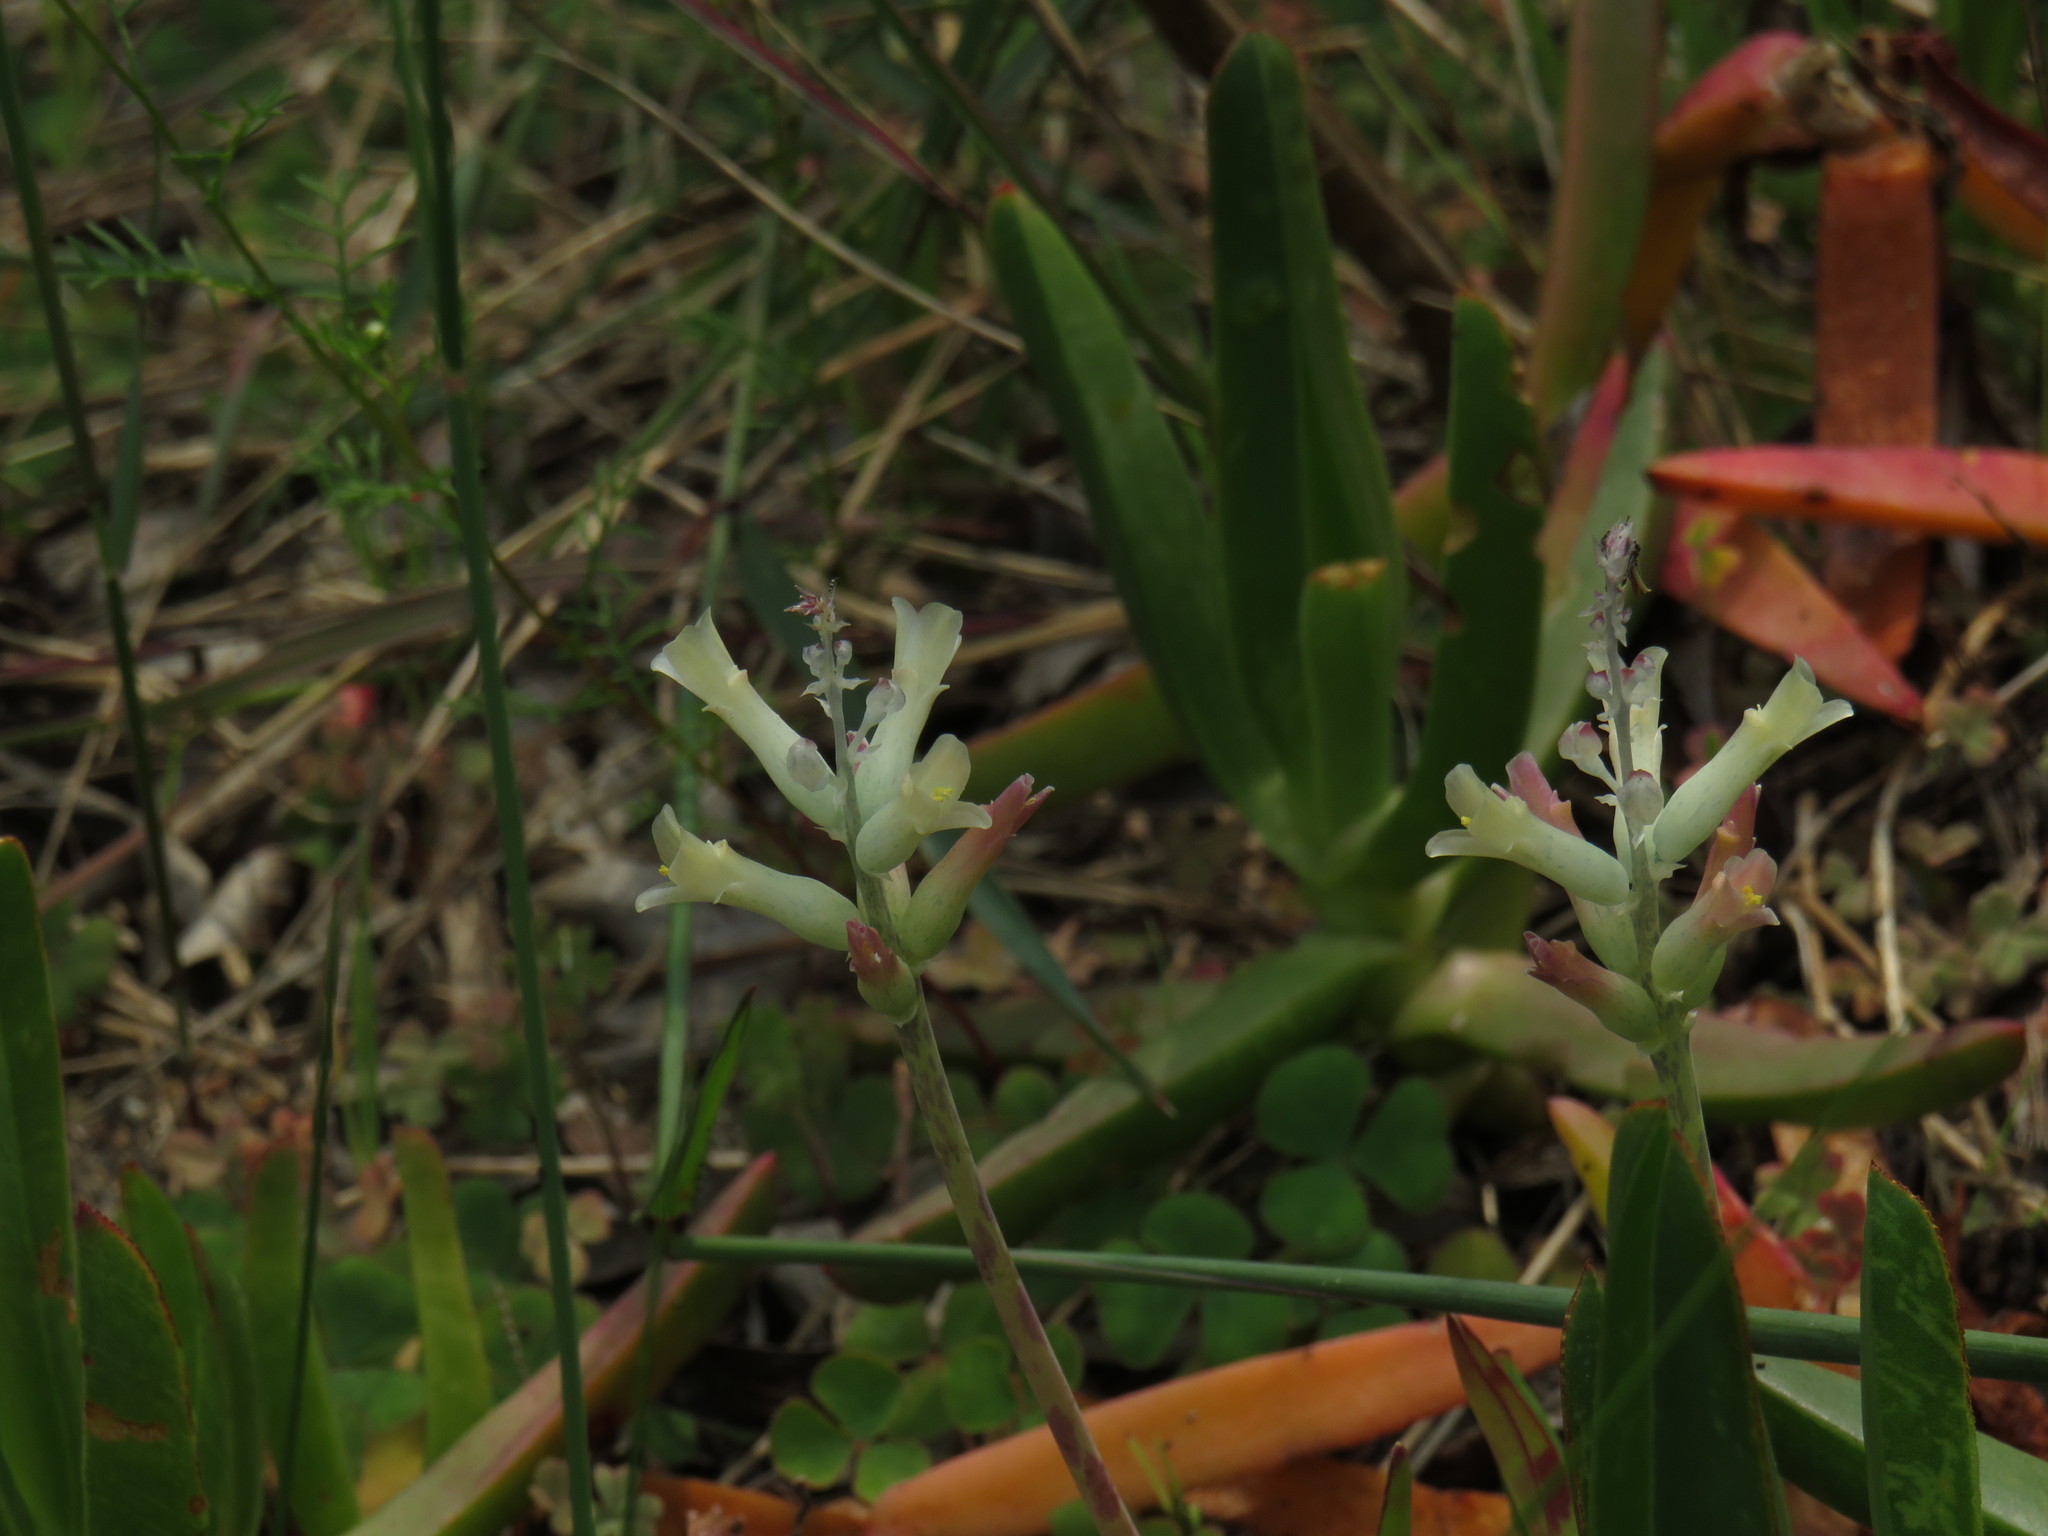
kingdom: Plantae
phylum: Tracheophyta
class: Liliopsida
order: Asparagales
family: Asparagaceae
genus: Lachenalia
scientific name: Lachenalia orchioides
